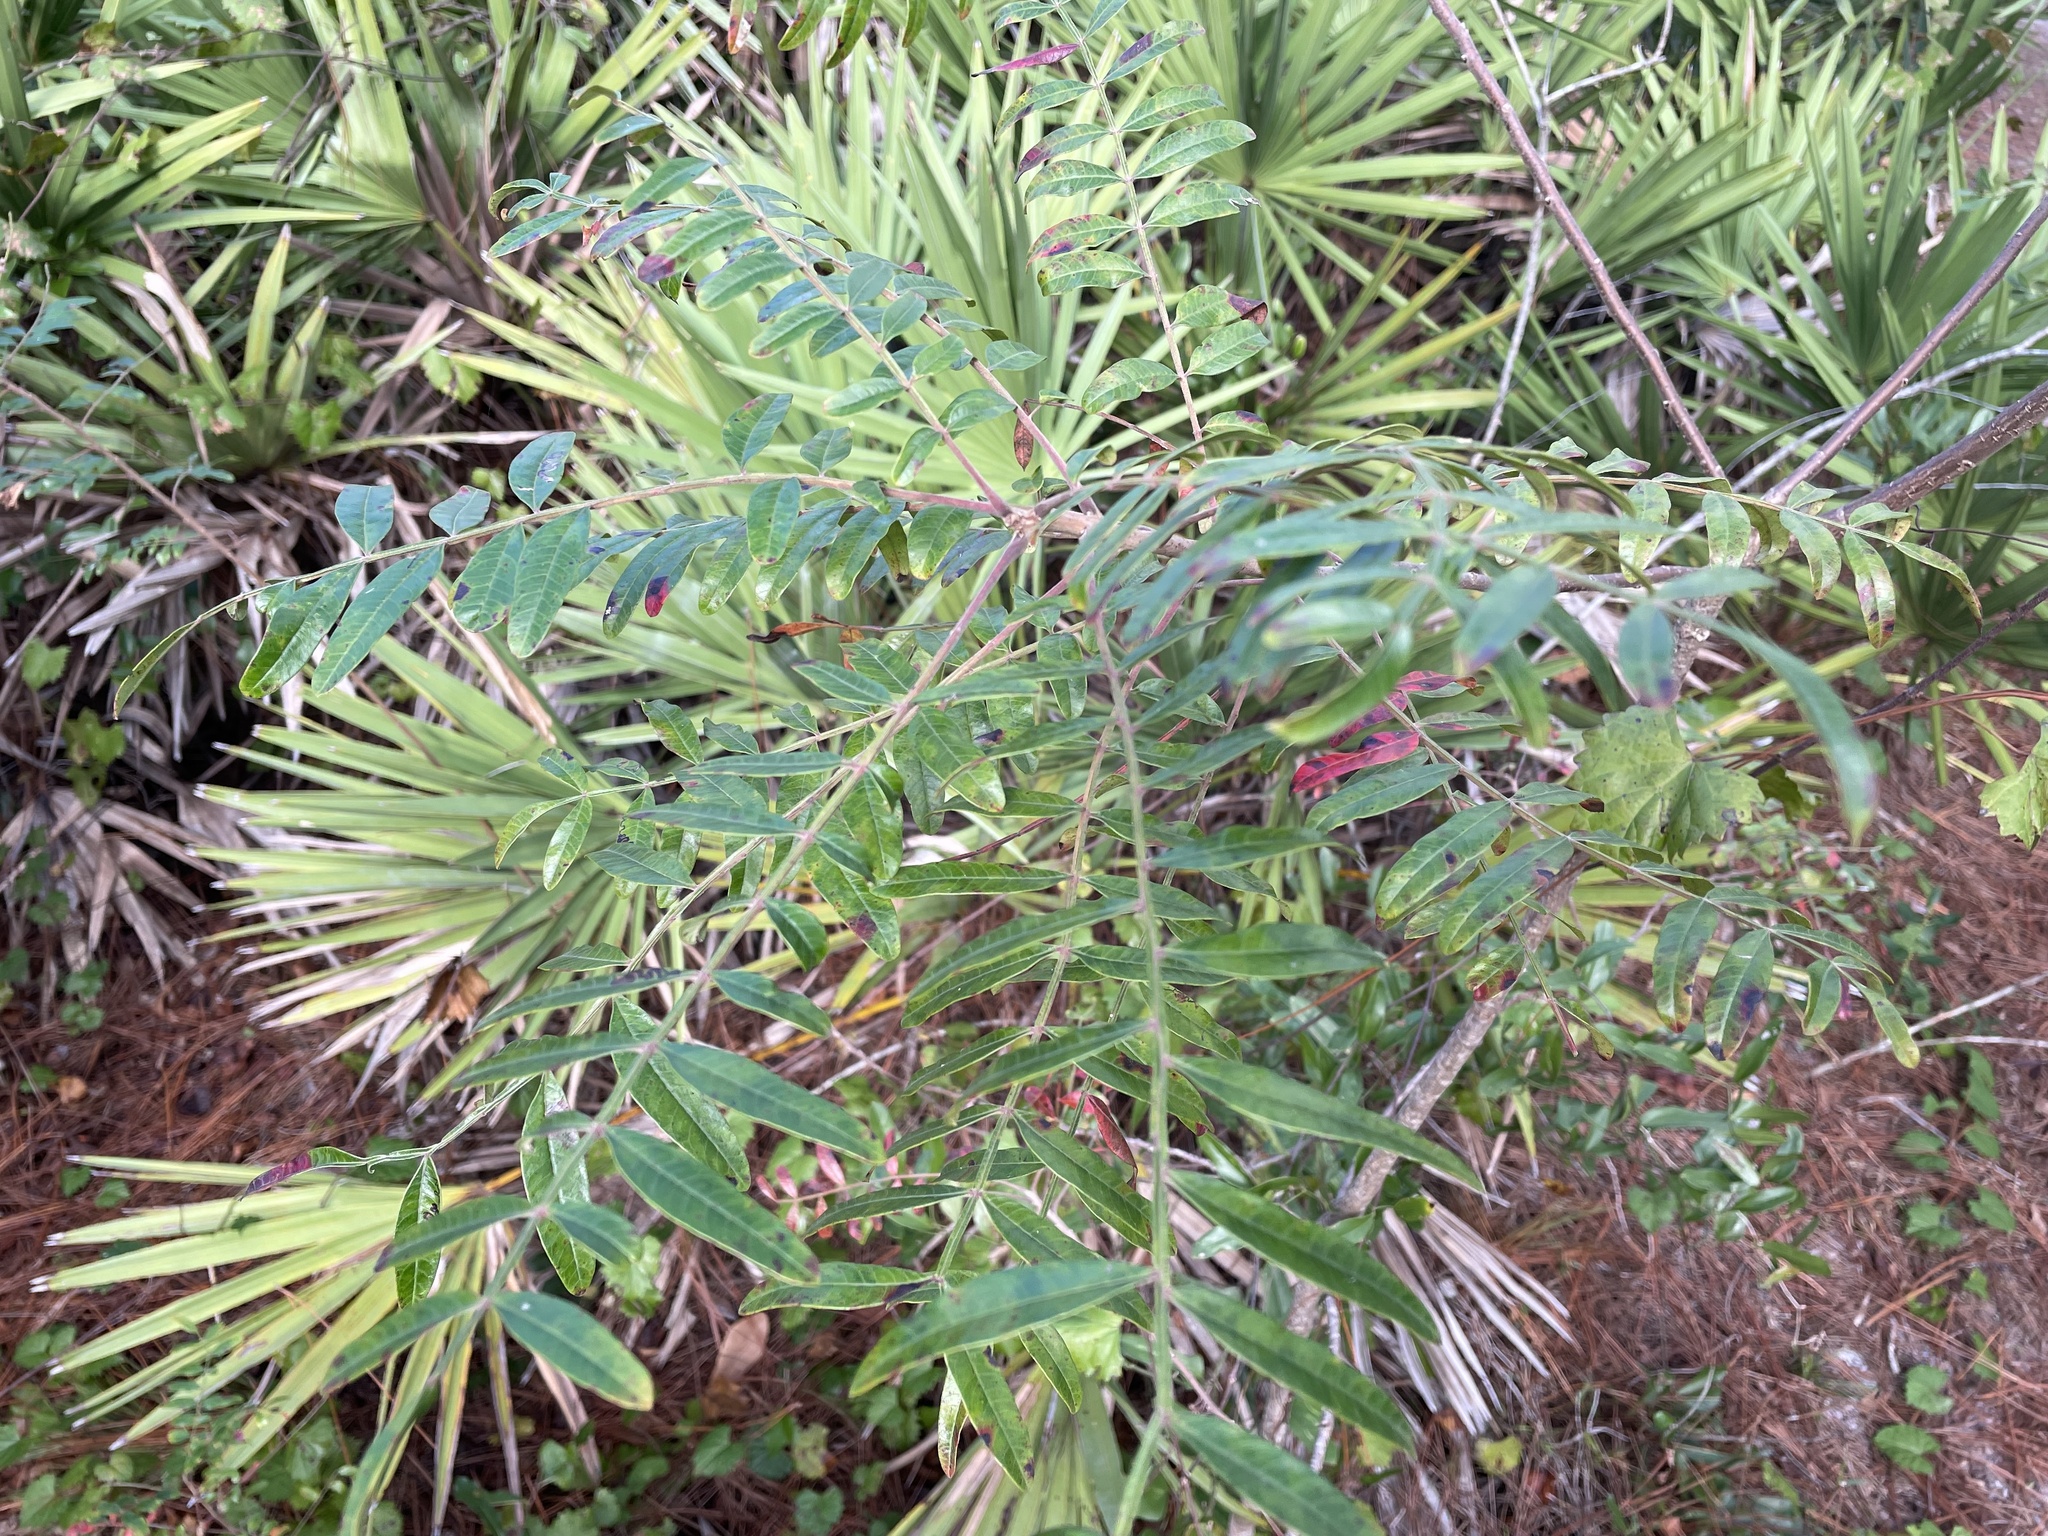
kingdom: Plantae
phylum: Tracheophyta
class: Magnoliopsida
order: Sapindales
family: Anacardiaceae
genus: Rhus
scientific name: Rhus copallina
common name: Shining sumac
